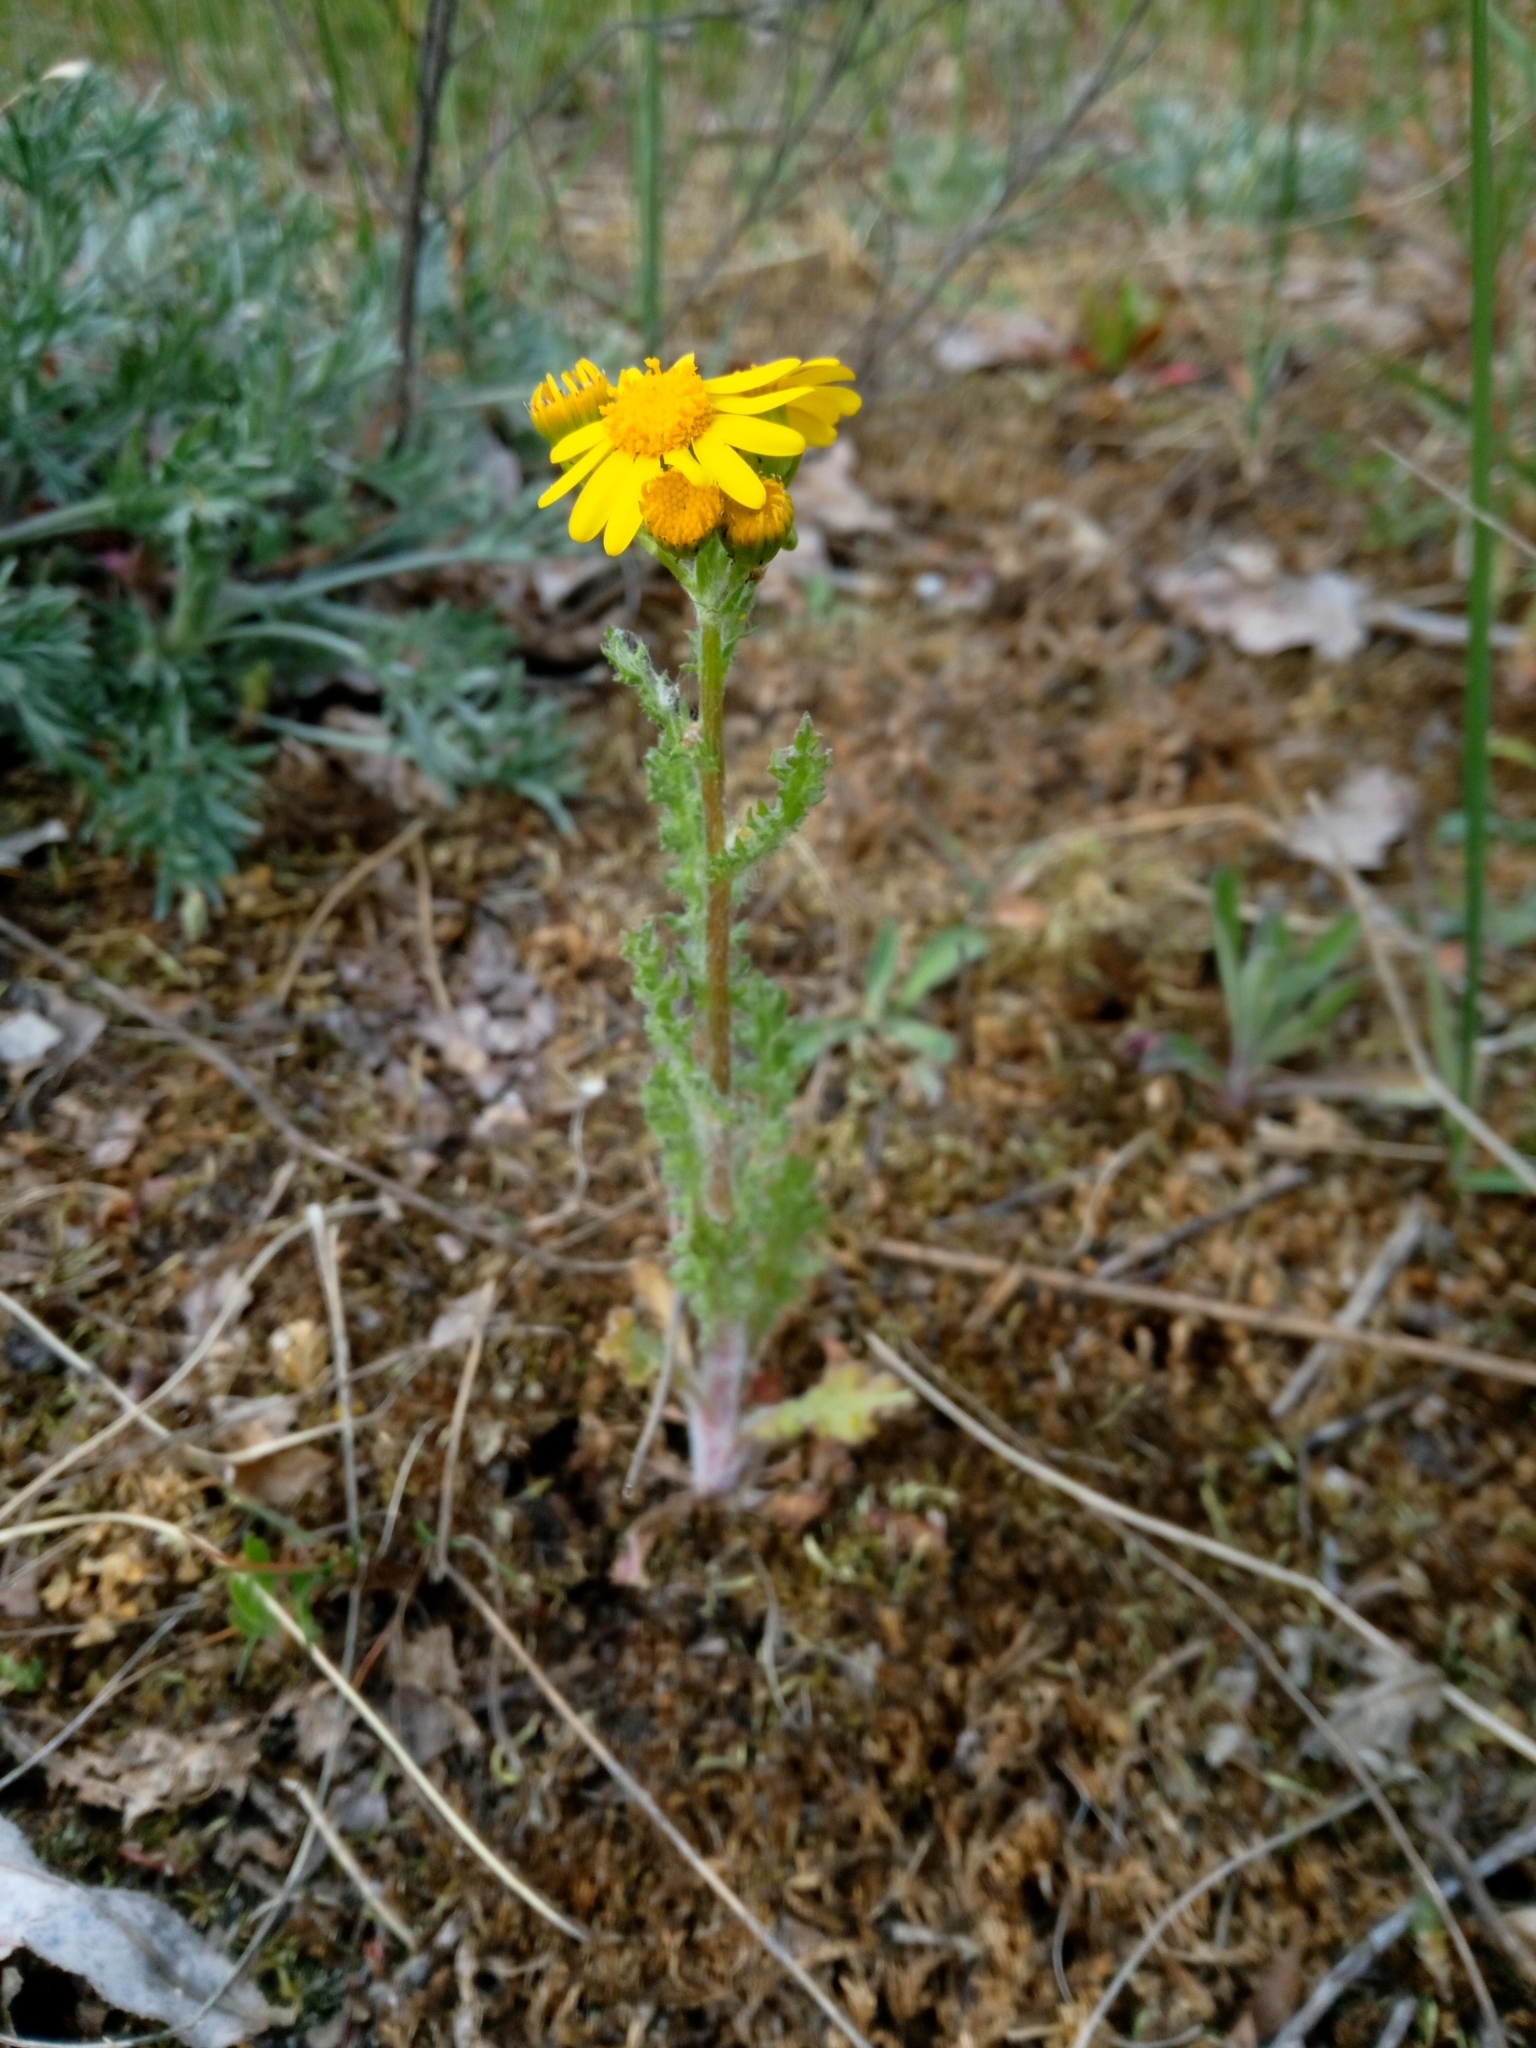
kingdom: Plantae
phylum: Tracheophyta
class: Magnoliopsida
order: Asterales
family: Asteraceae
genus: Senecio
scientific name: Senecio vernalis
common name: Eastern groundsel
